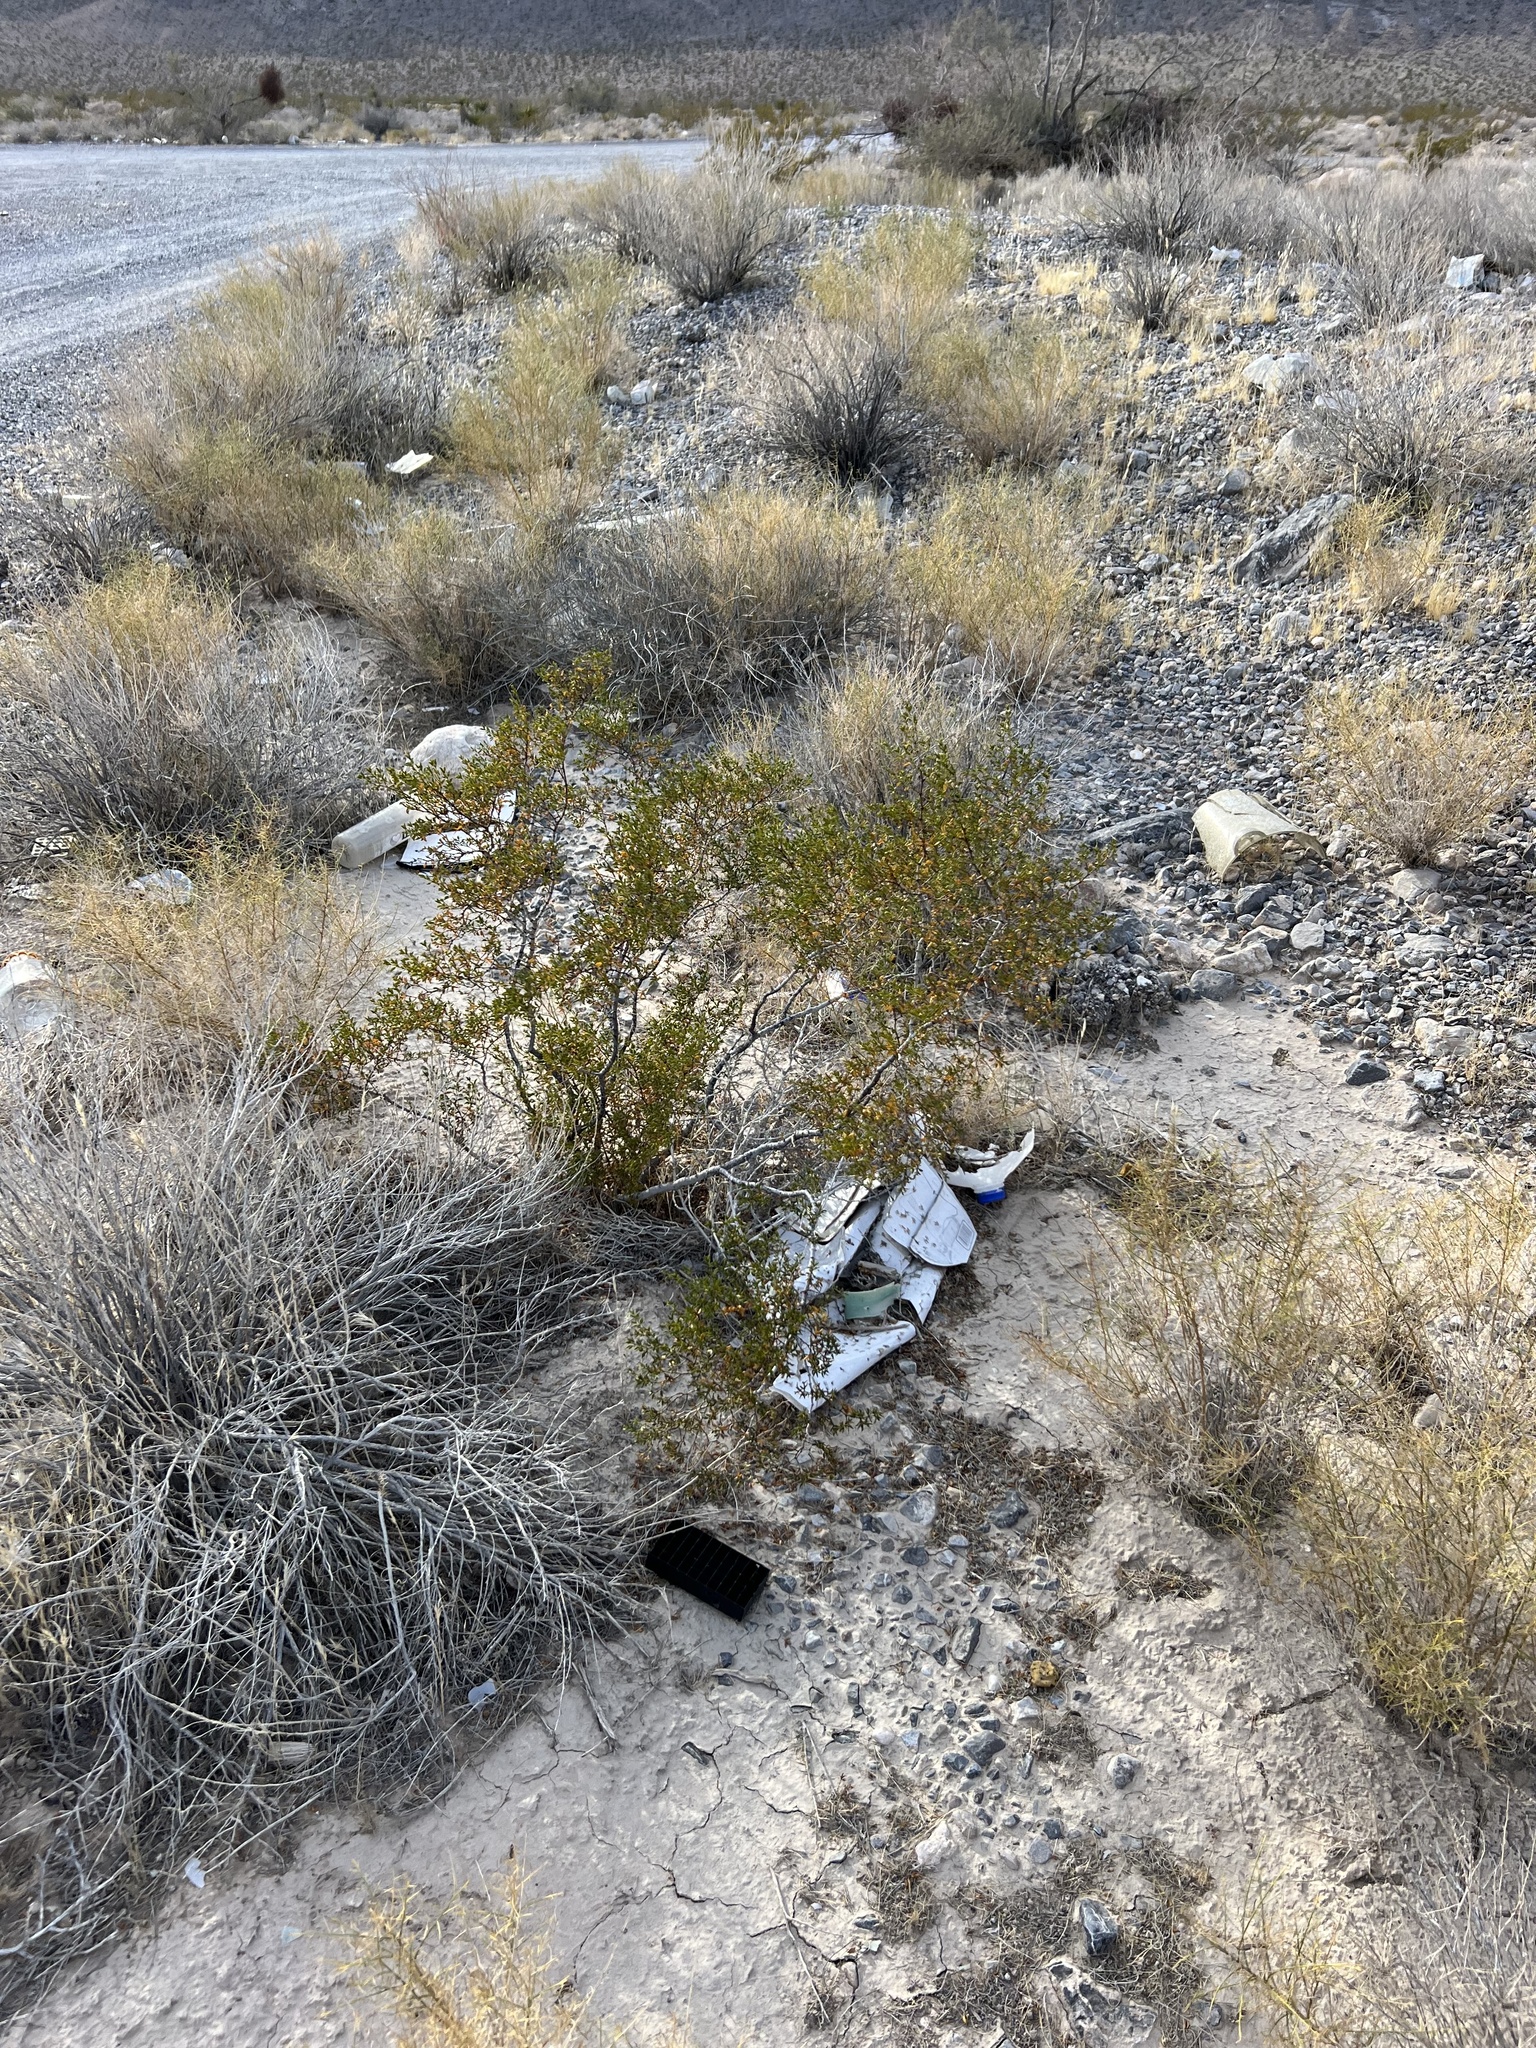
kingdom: Plantae
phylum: Tracheophyta
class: Magnoliopsida
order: Zygophyllales
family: Zygophyllaceae
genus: Larrea
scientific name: Larrea tridentata
